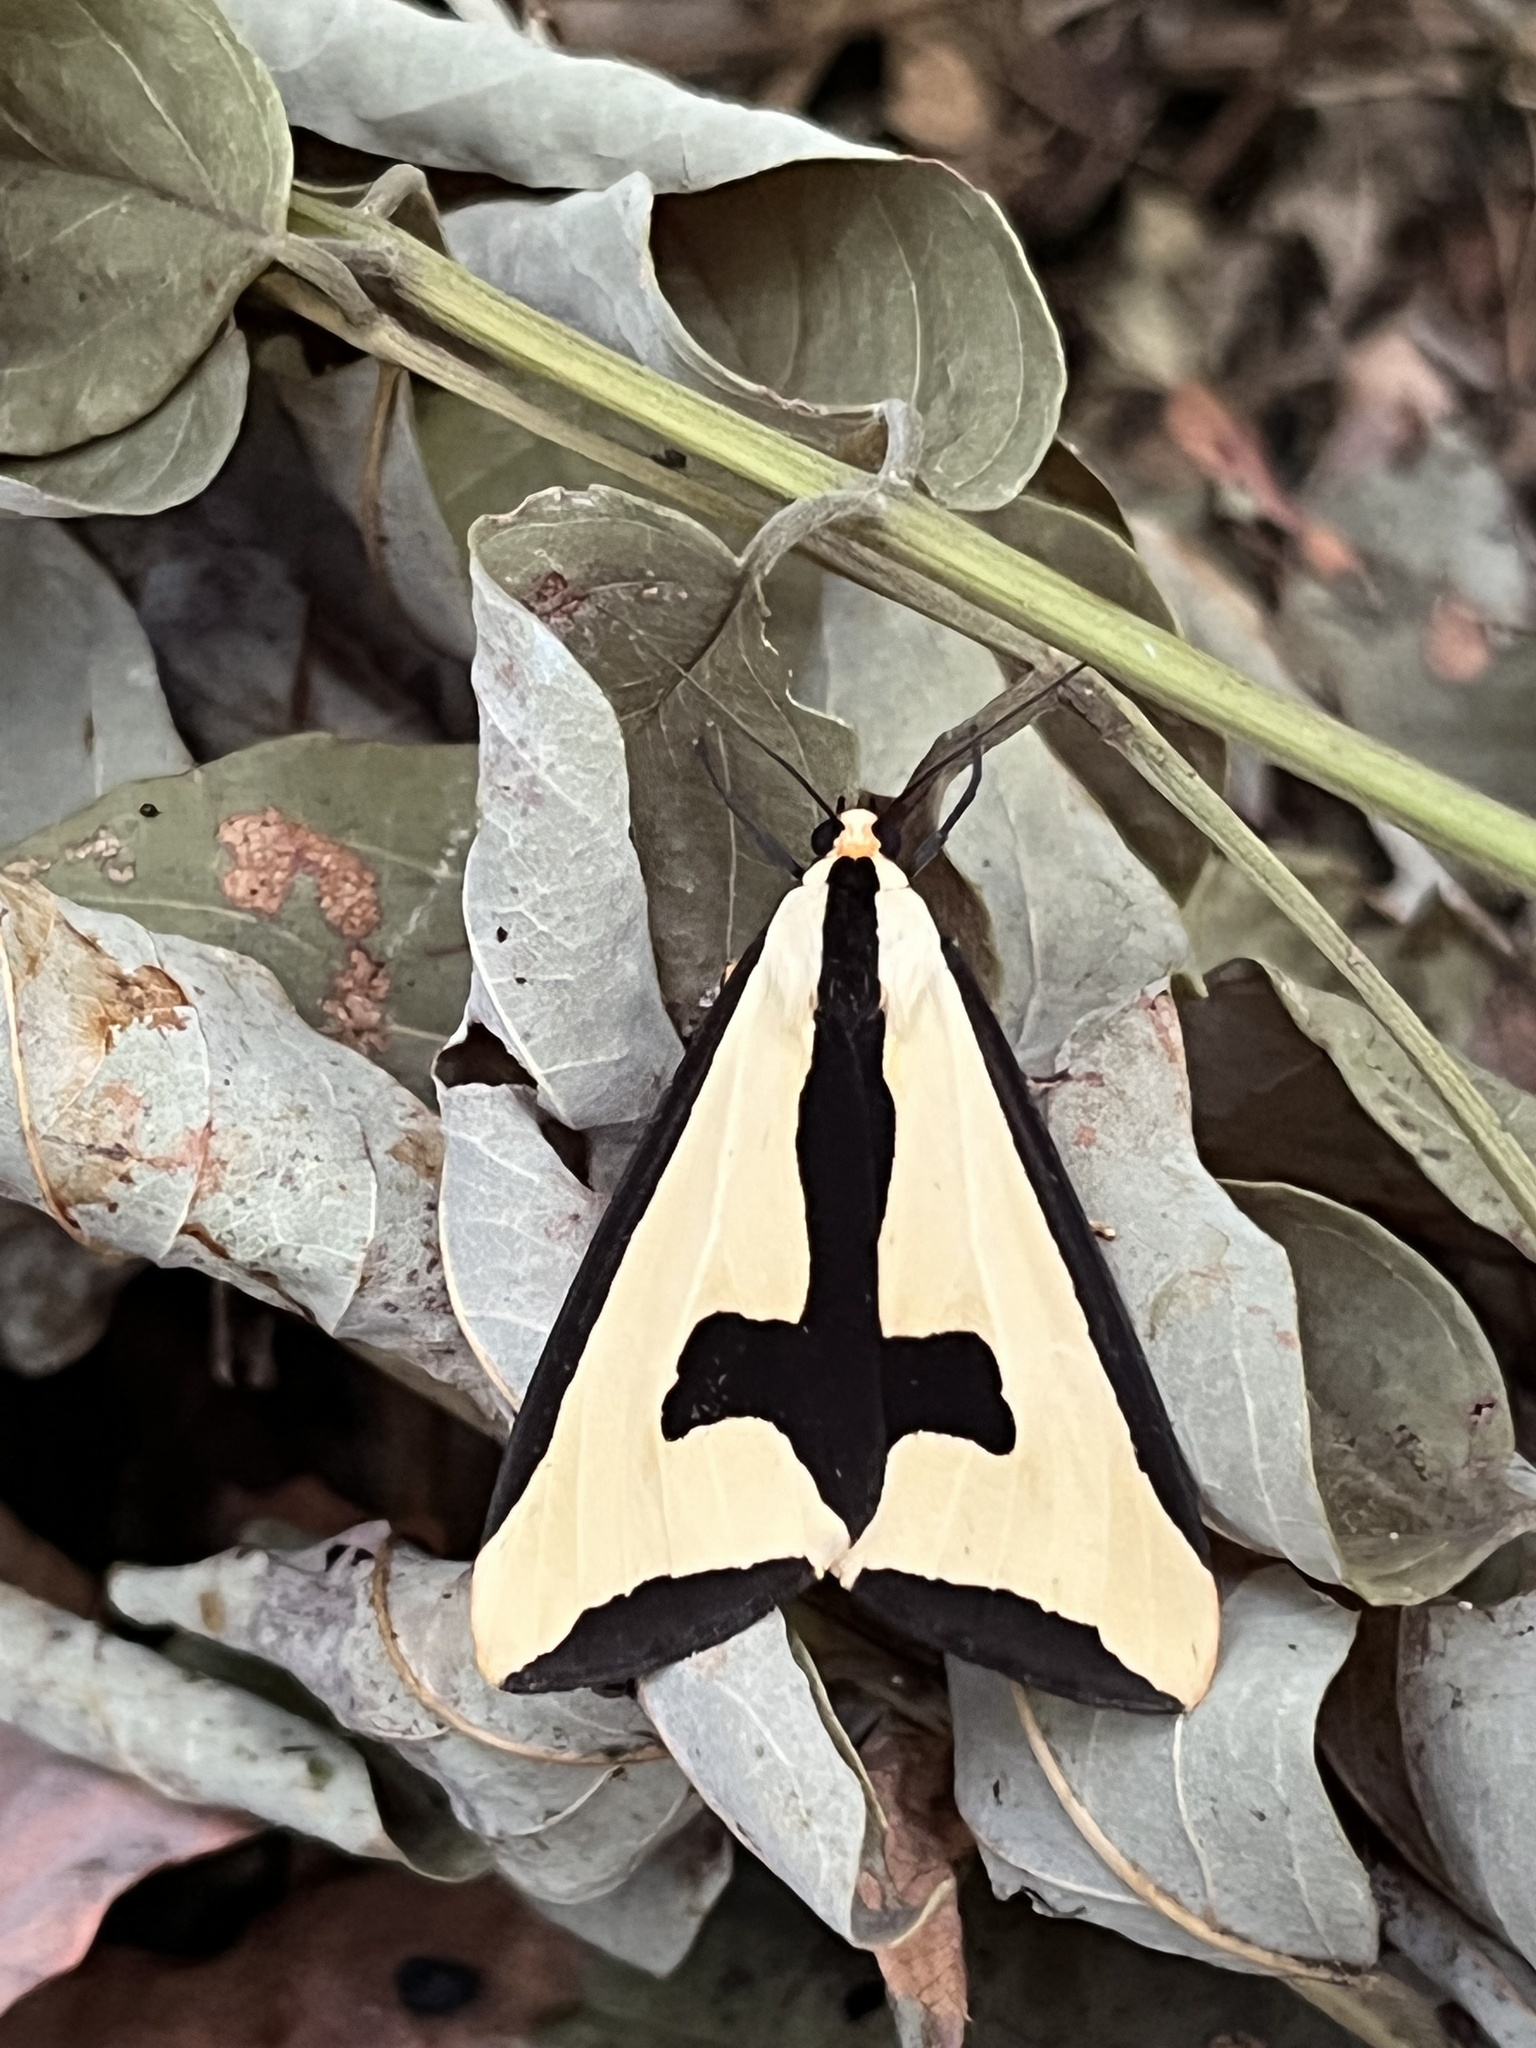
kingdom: Animalia
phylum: Arthropoda
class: Insecta
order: Lepidoptera
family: Erebidae
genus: Haploa
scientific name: Haploa clymene
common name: Clymene moth
